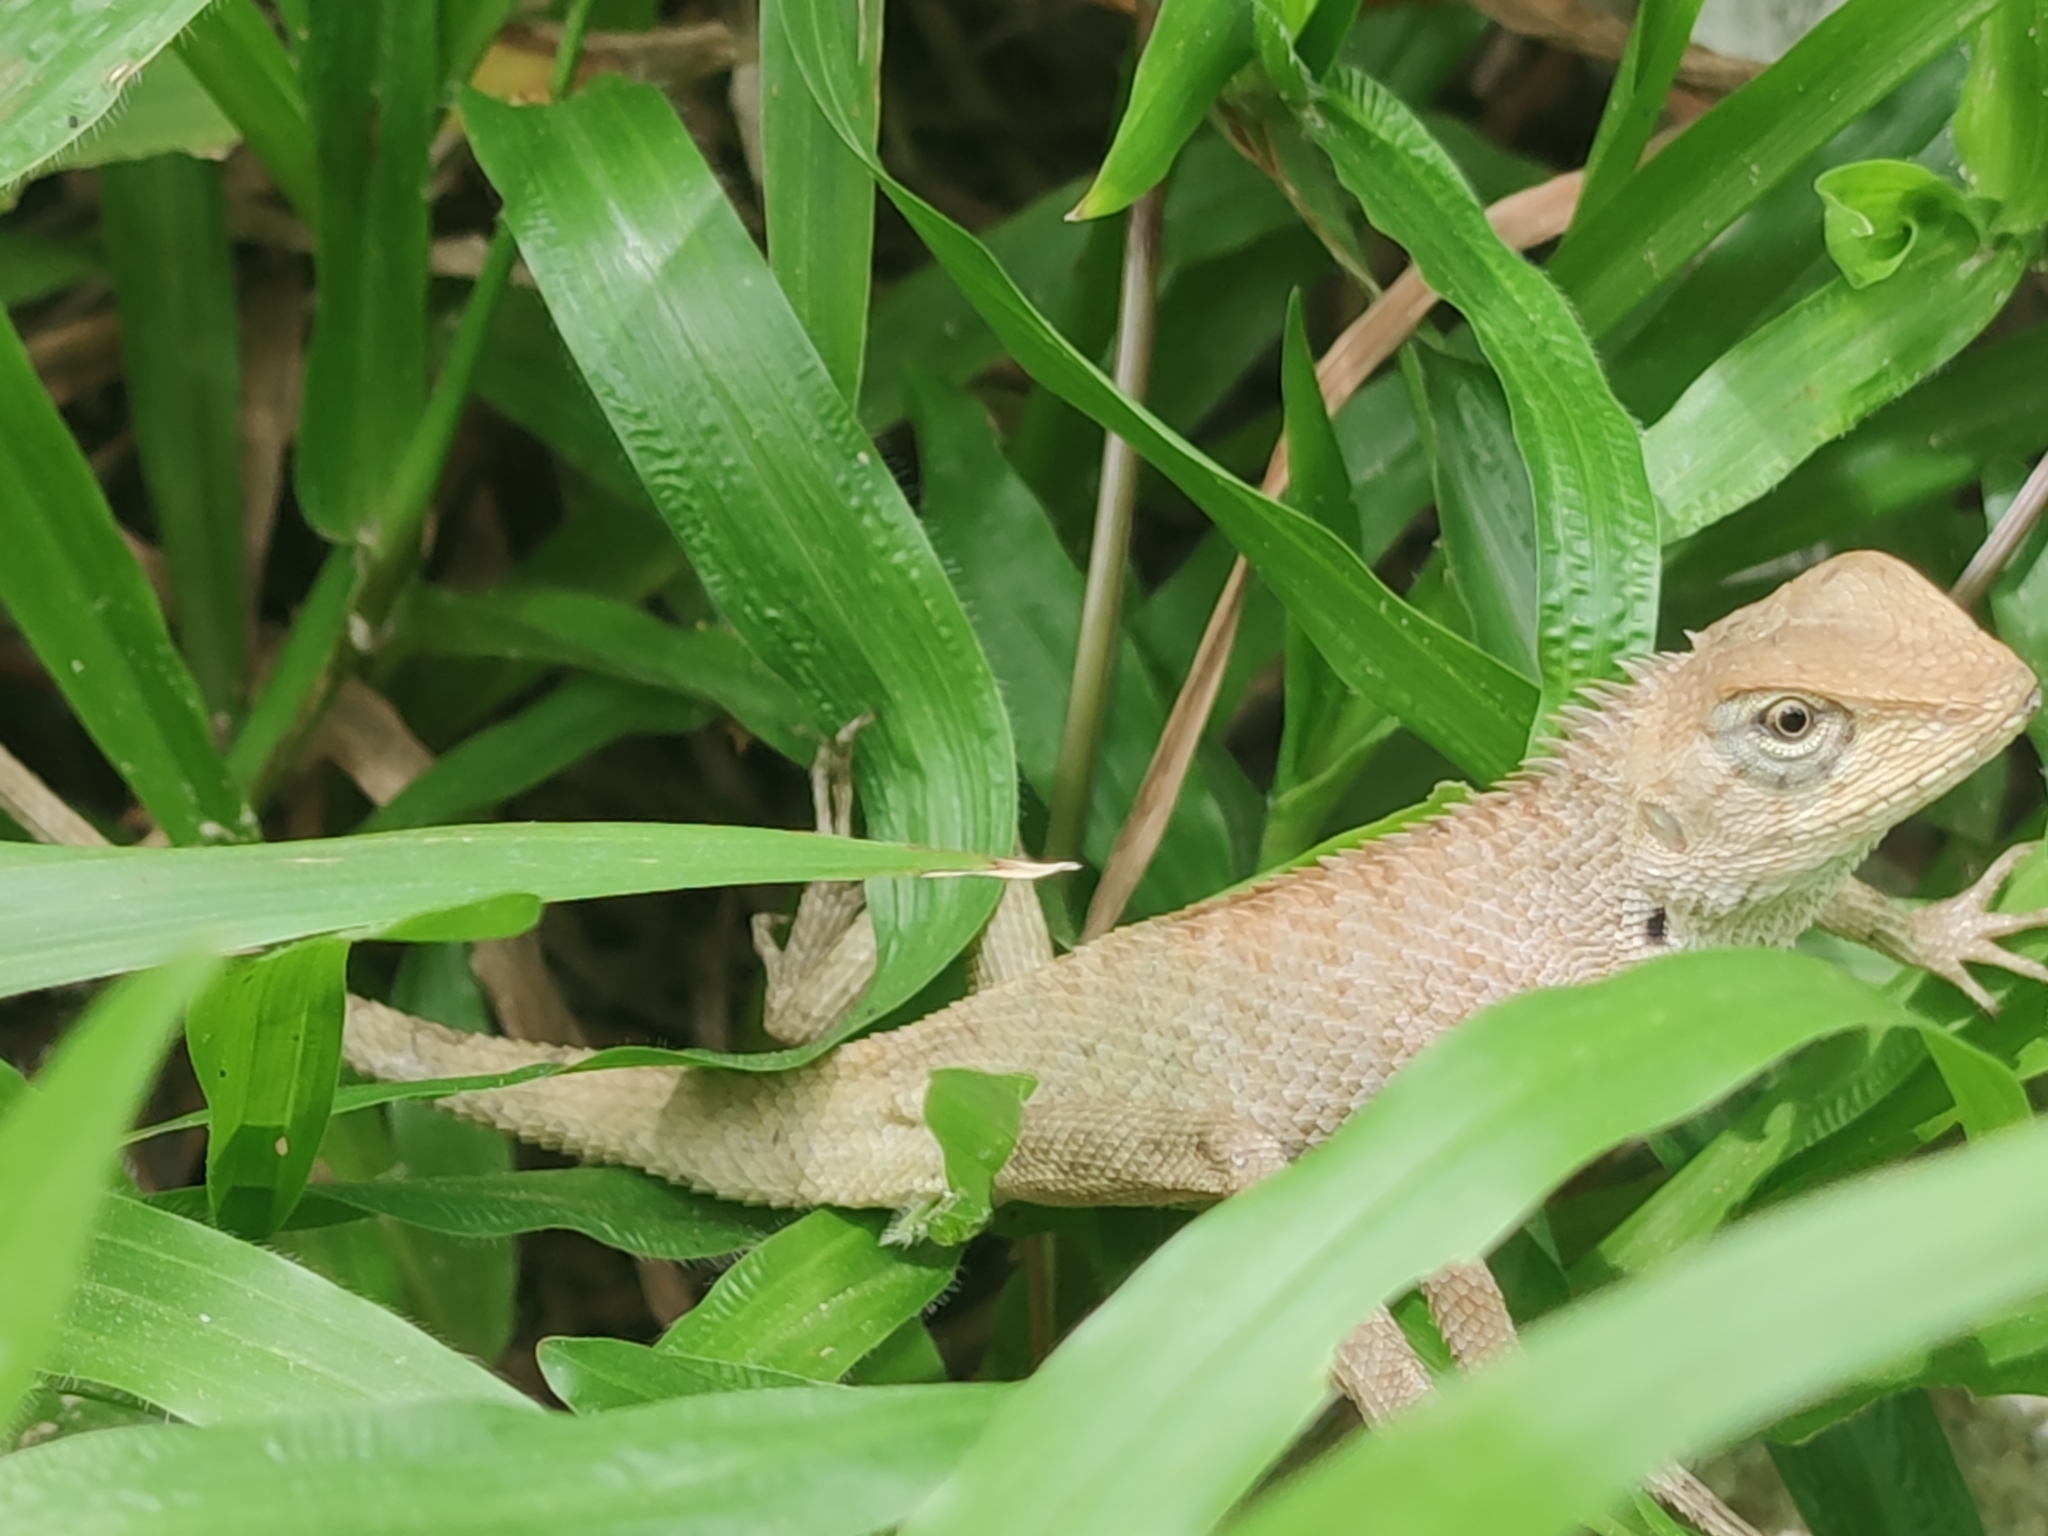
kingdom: Animalia
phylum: Chordata
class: Squamata
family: Agamidae
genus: Calotes
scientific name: Calotes versicolor
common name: Oriental garden lizard
